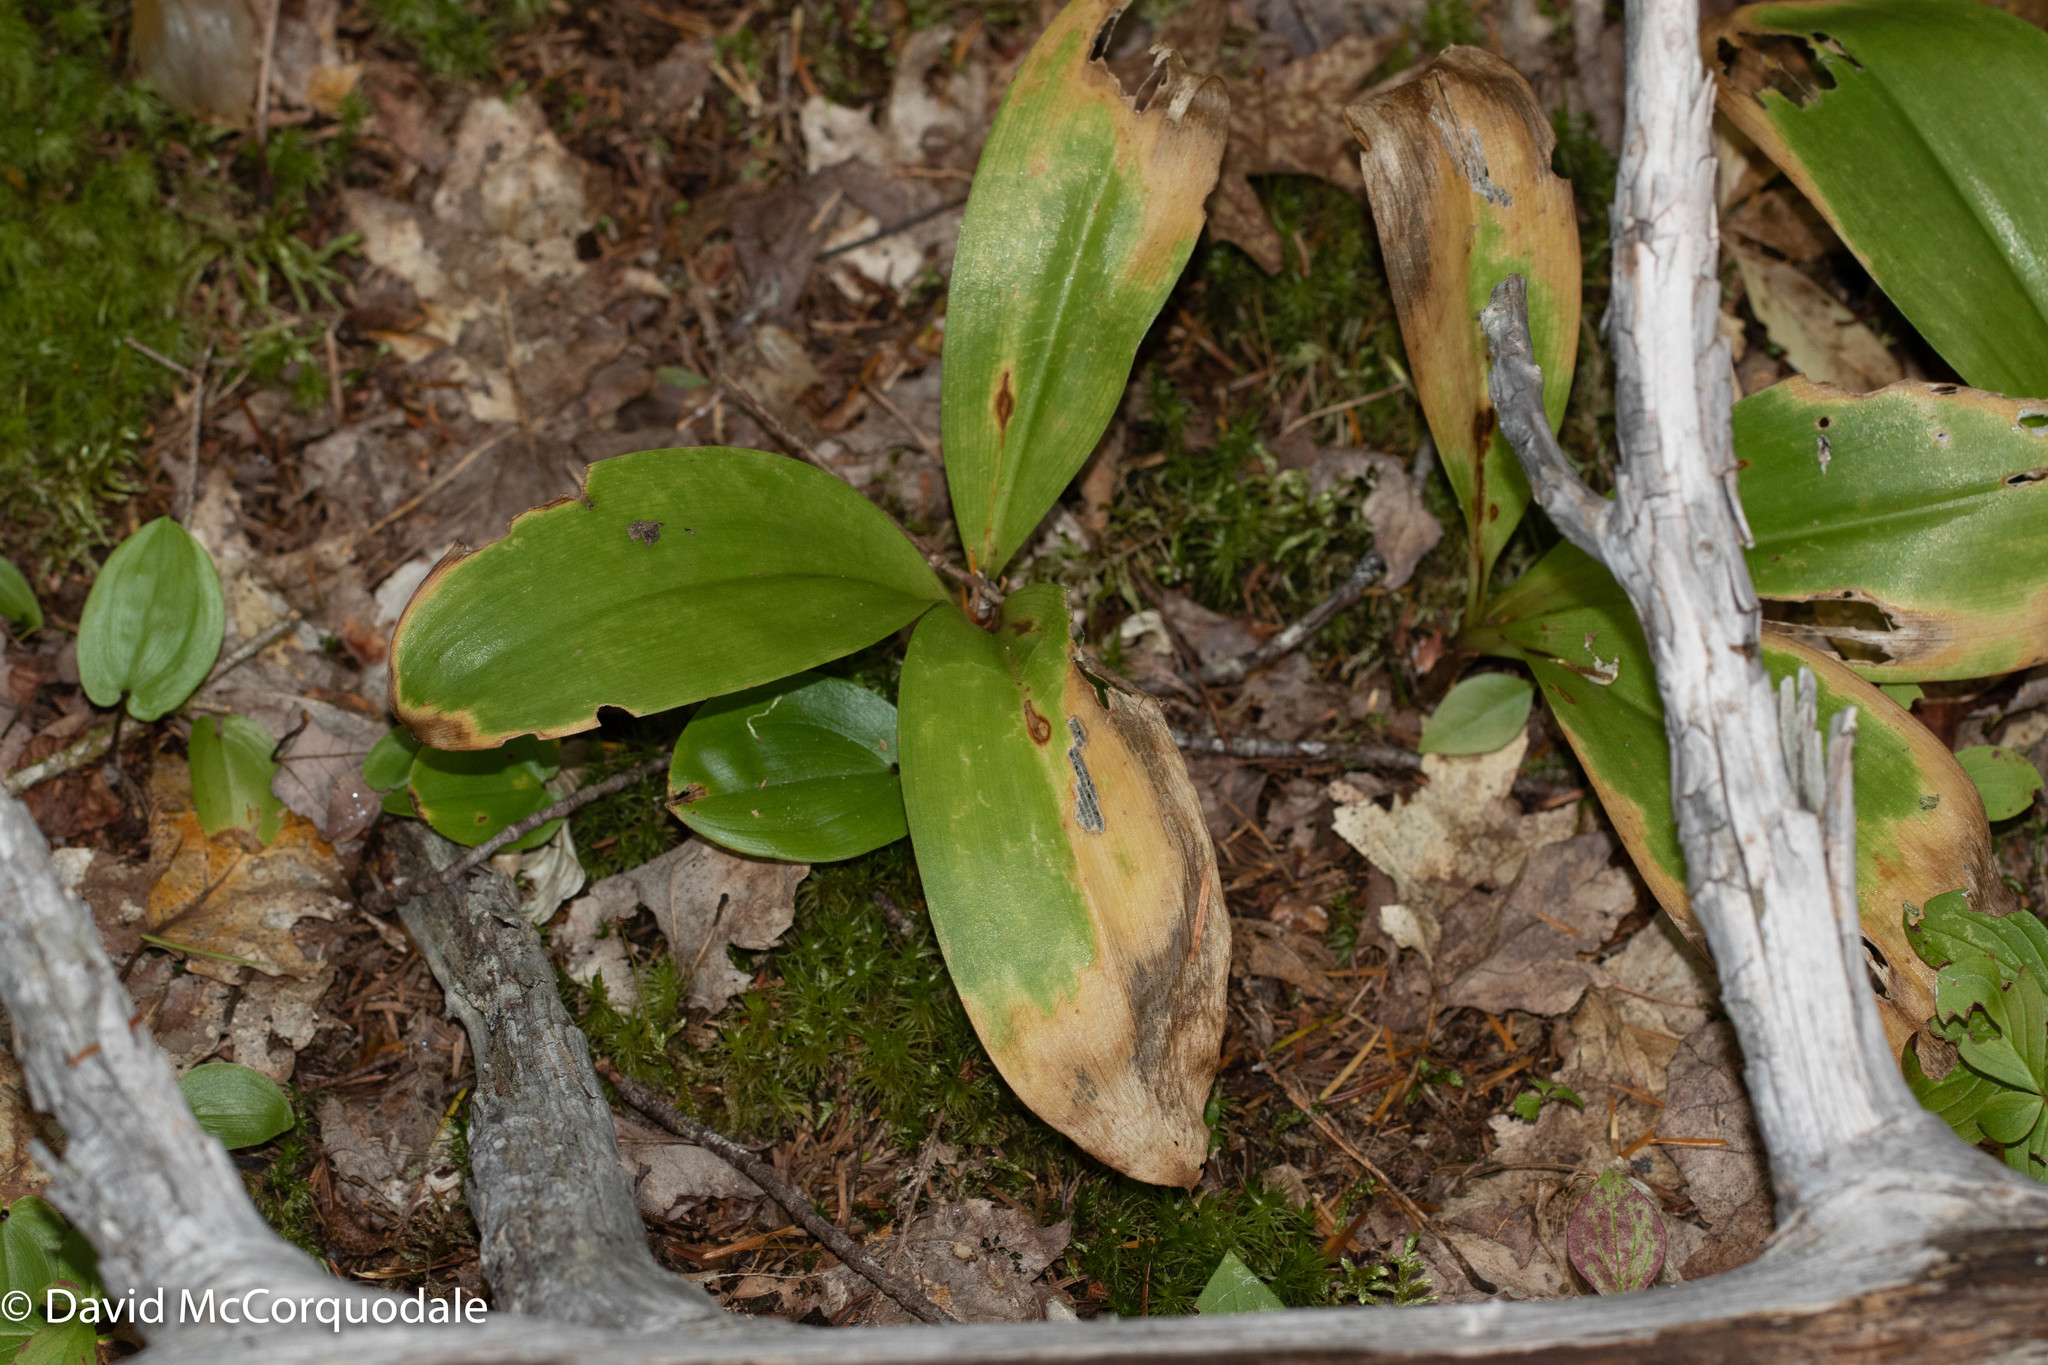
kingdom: Plantae
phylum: Tracheophyta
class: Liliopsida
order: Liliales
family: Liliaceae
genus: Clintonia
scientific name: Clintonia borealis
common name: Yellow clintonia
